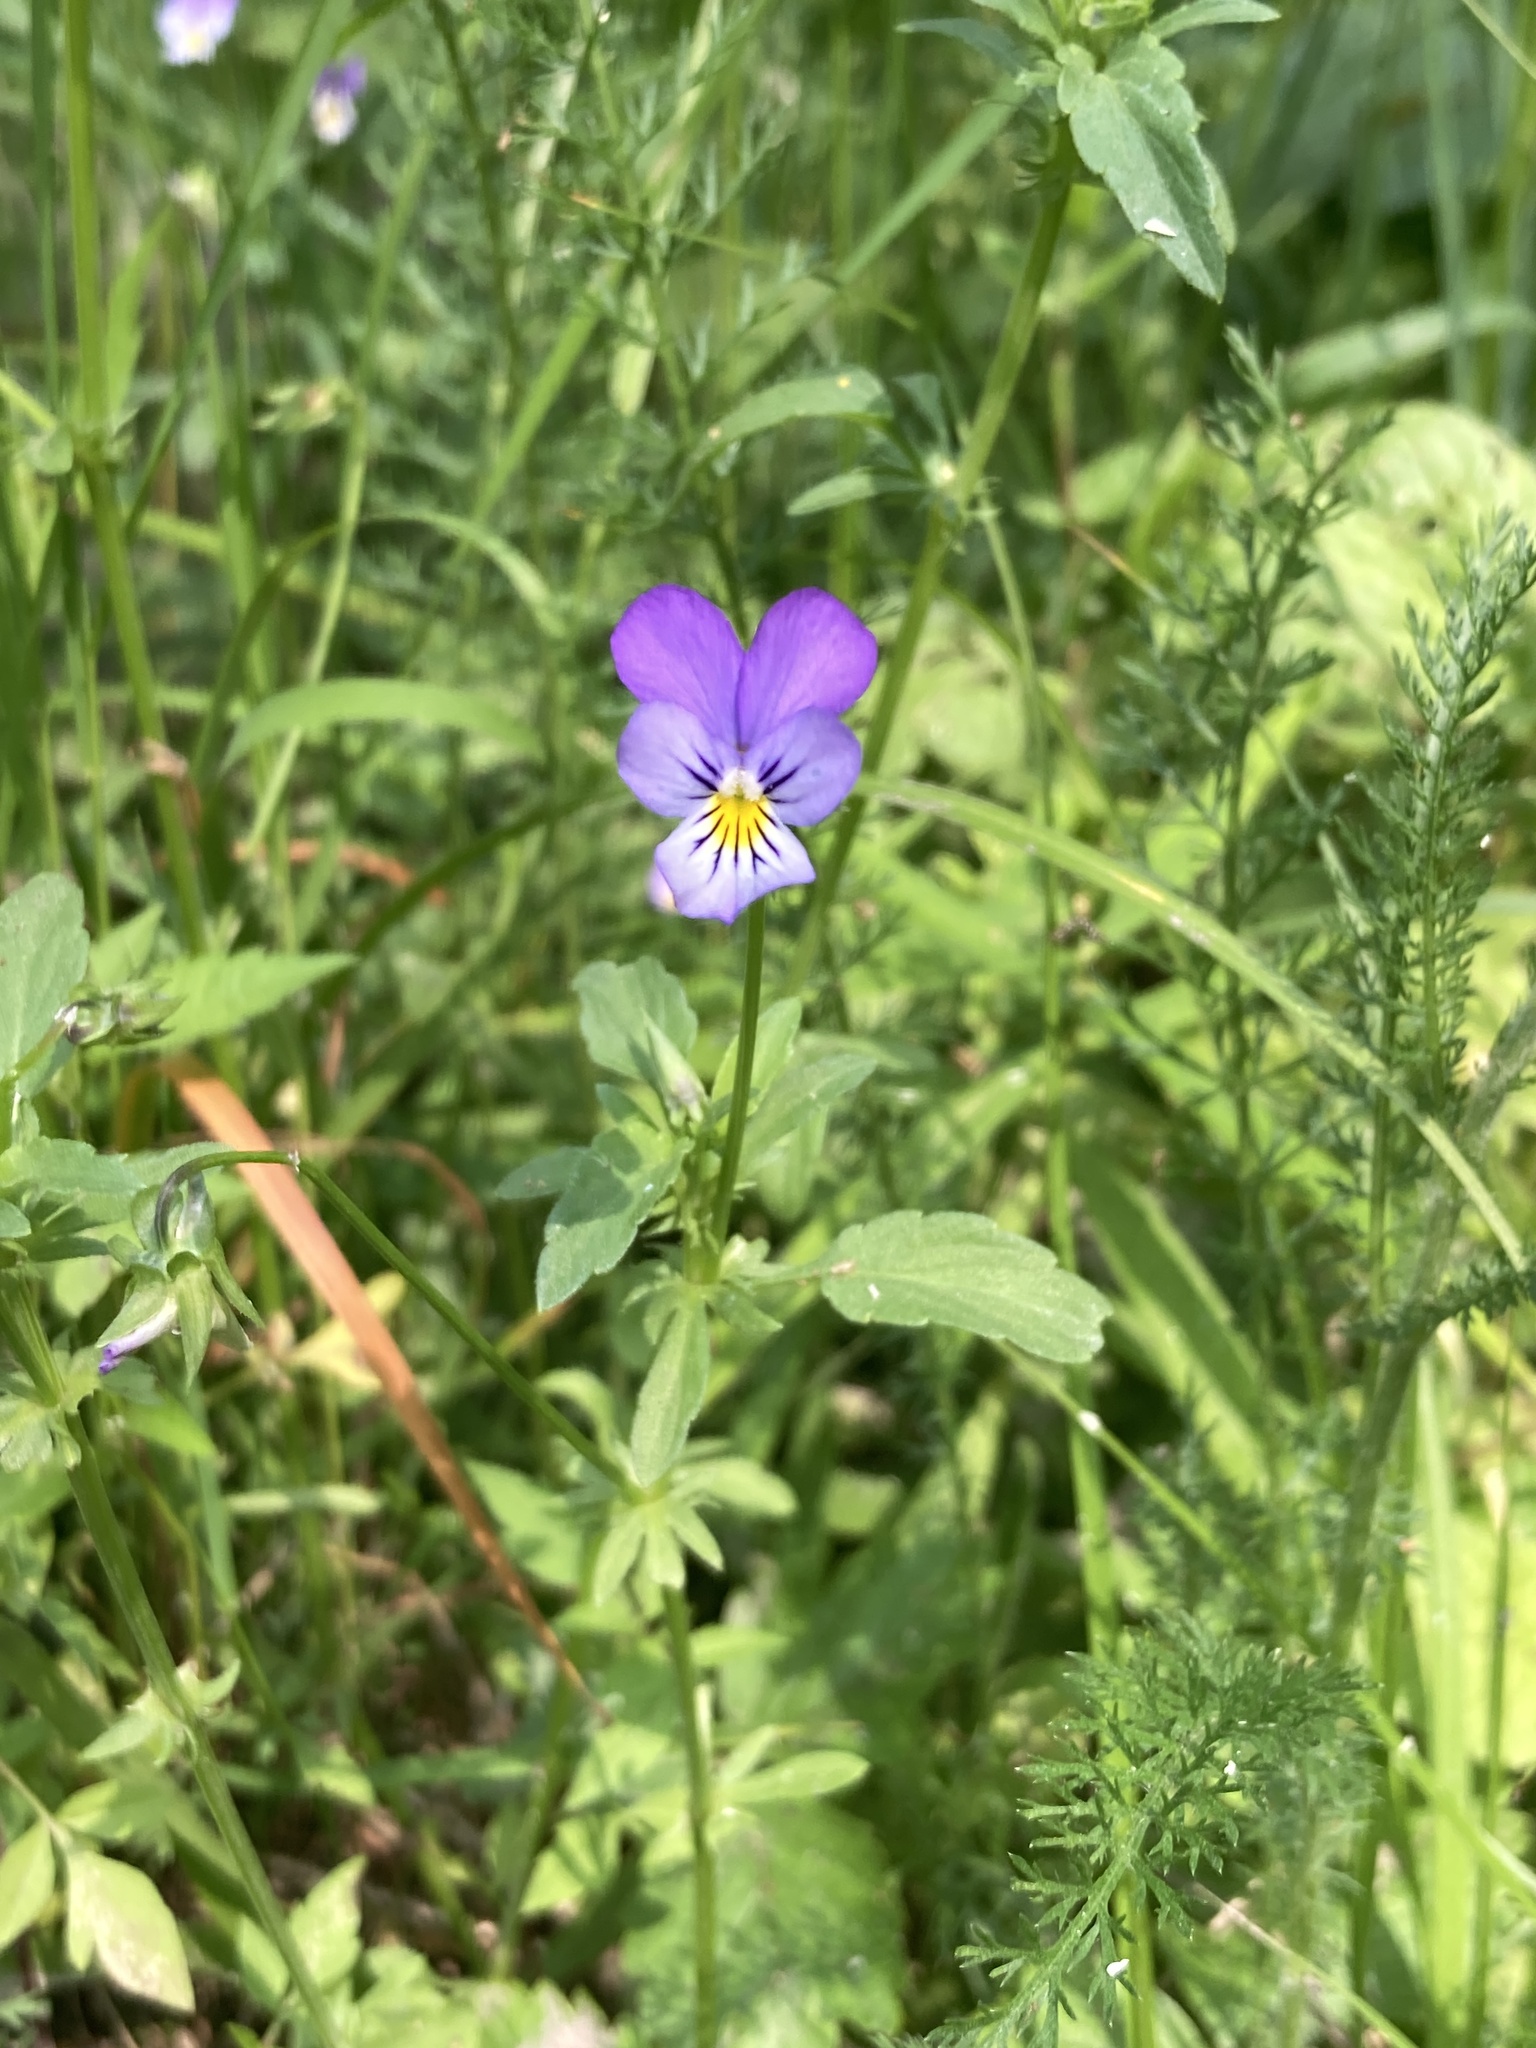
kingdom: Plantae
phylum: Tracheophyta
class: Magnoliopsida
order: Malpighiales
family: Violaceae
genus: Viola
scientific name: Viola tricolor
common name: Pansy
